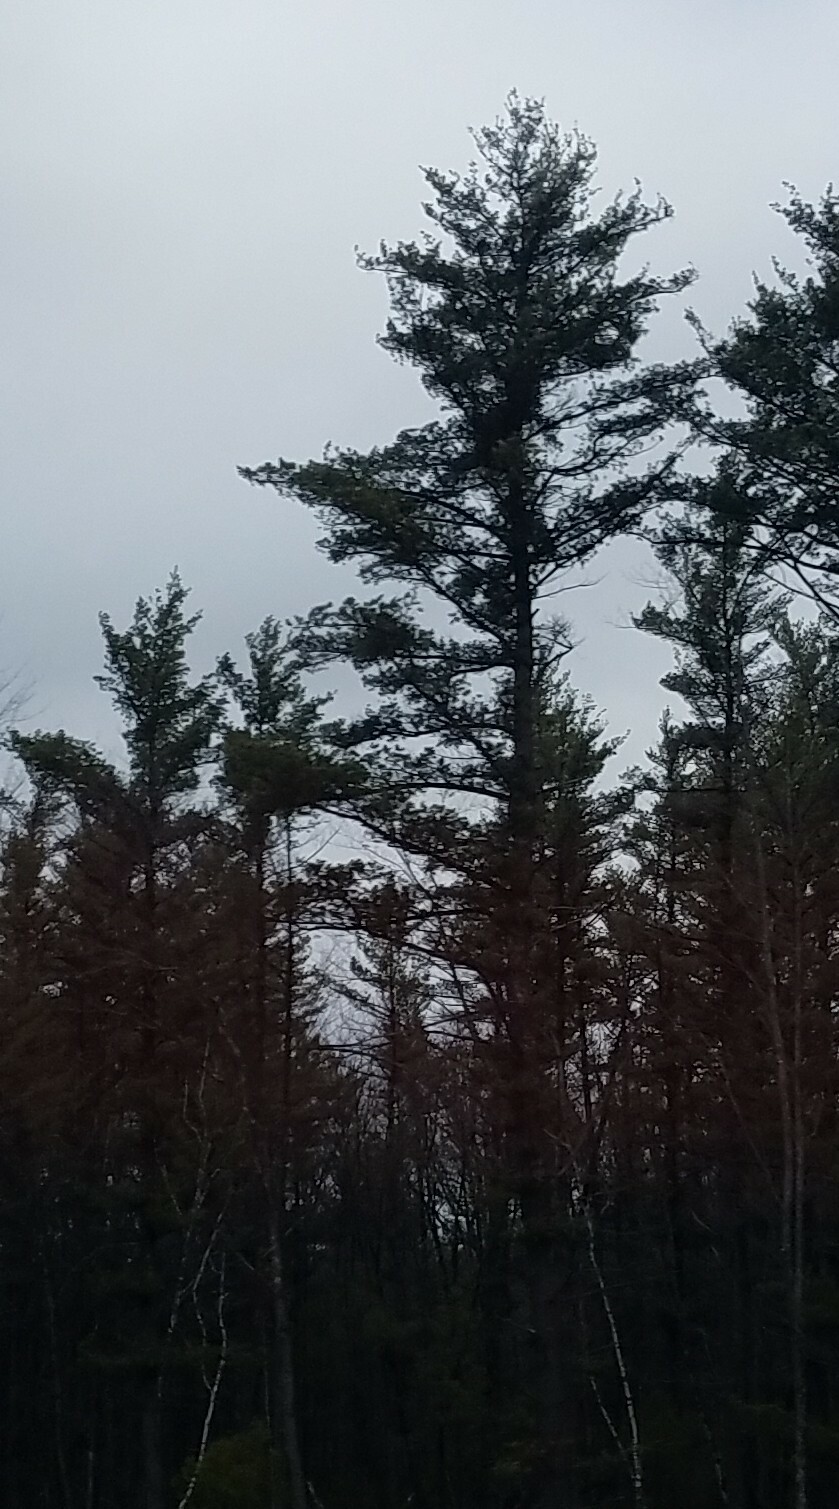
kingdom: Plantae
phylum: Tracheophyta
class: Pinopsida
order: Pinales
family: Pinaceae
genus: Pinus
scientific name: Pinus strobus
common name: Weymouth pine
